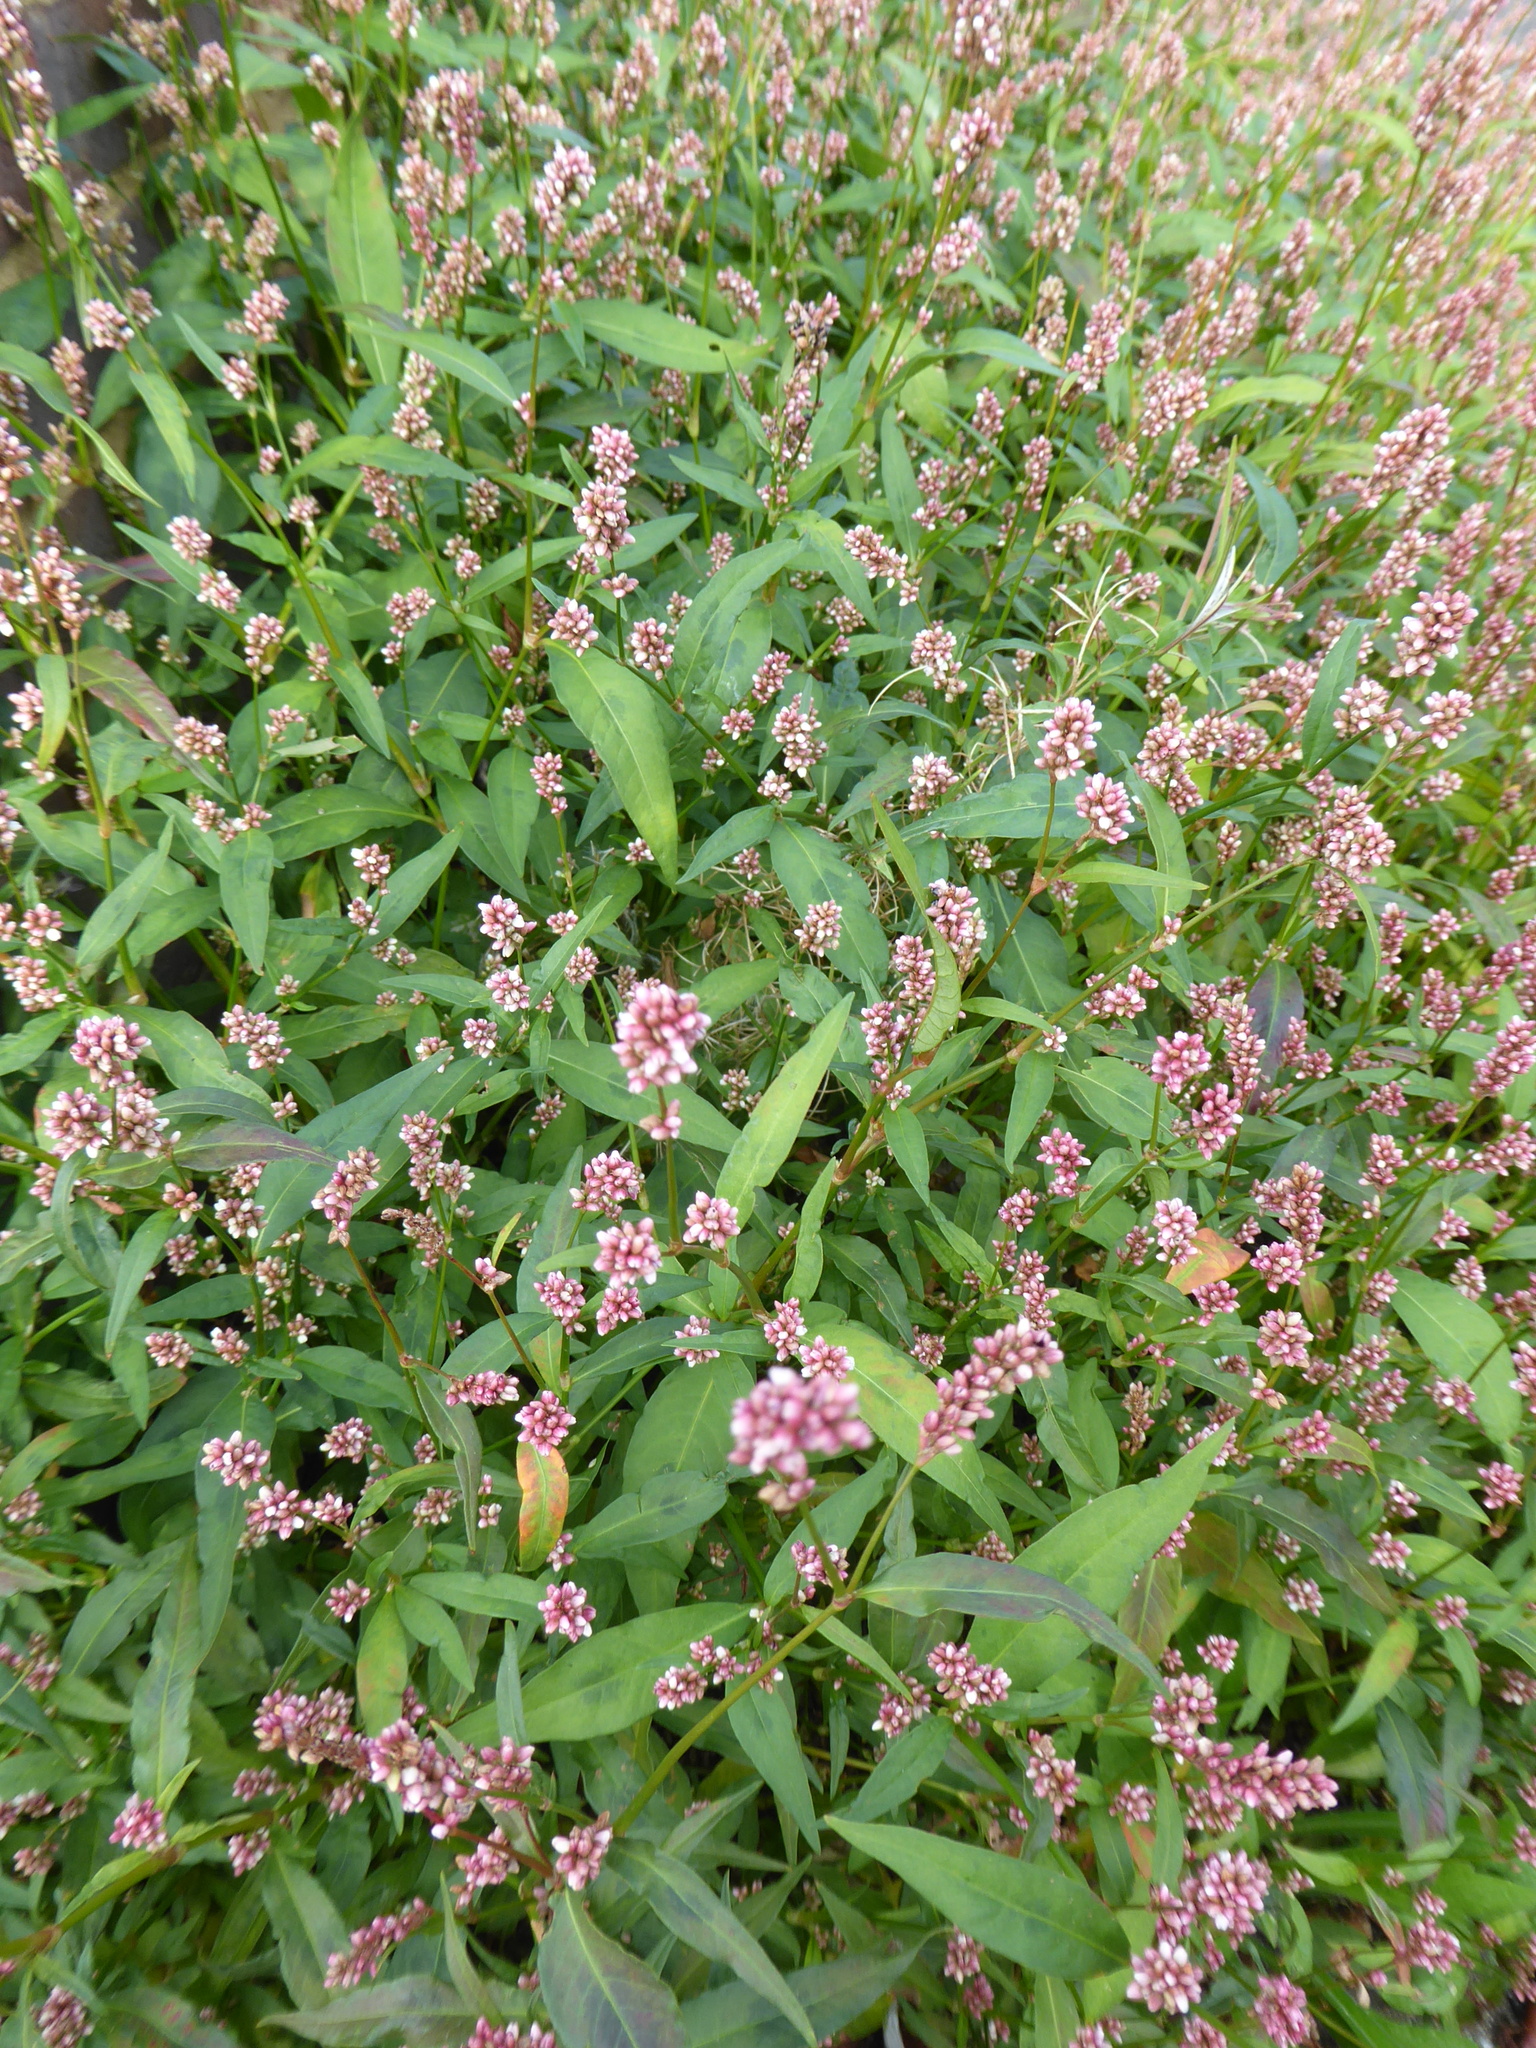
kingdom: Plantae
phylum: Tracheophyta
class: Magnoliopsida
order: Caryophyllales
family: Polygonaceae
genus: Persicaria
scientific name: Persicaria maculosa
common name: Redshank
